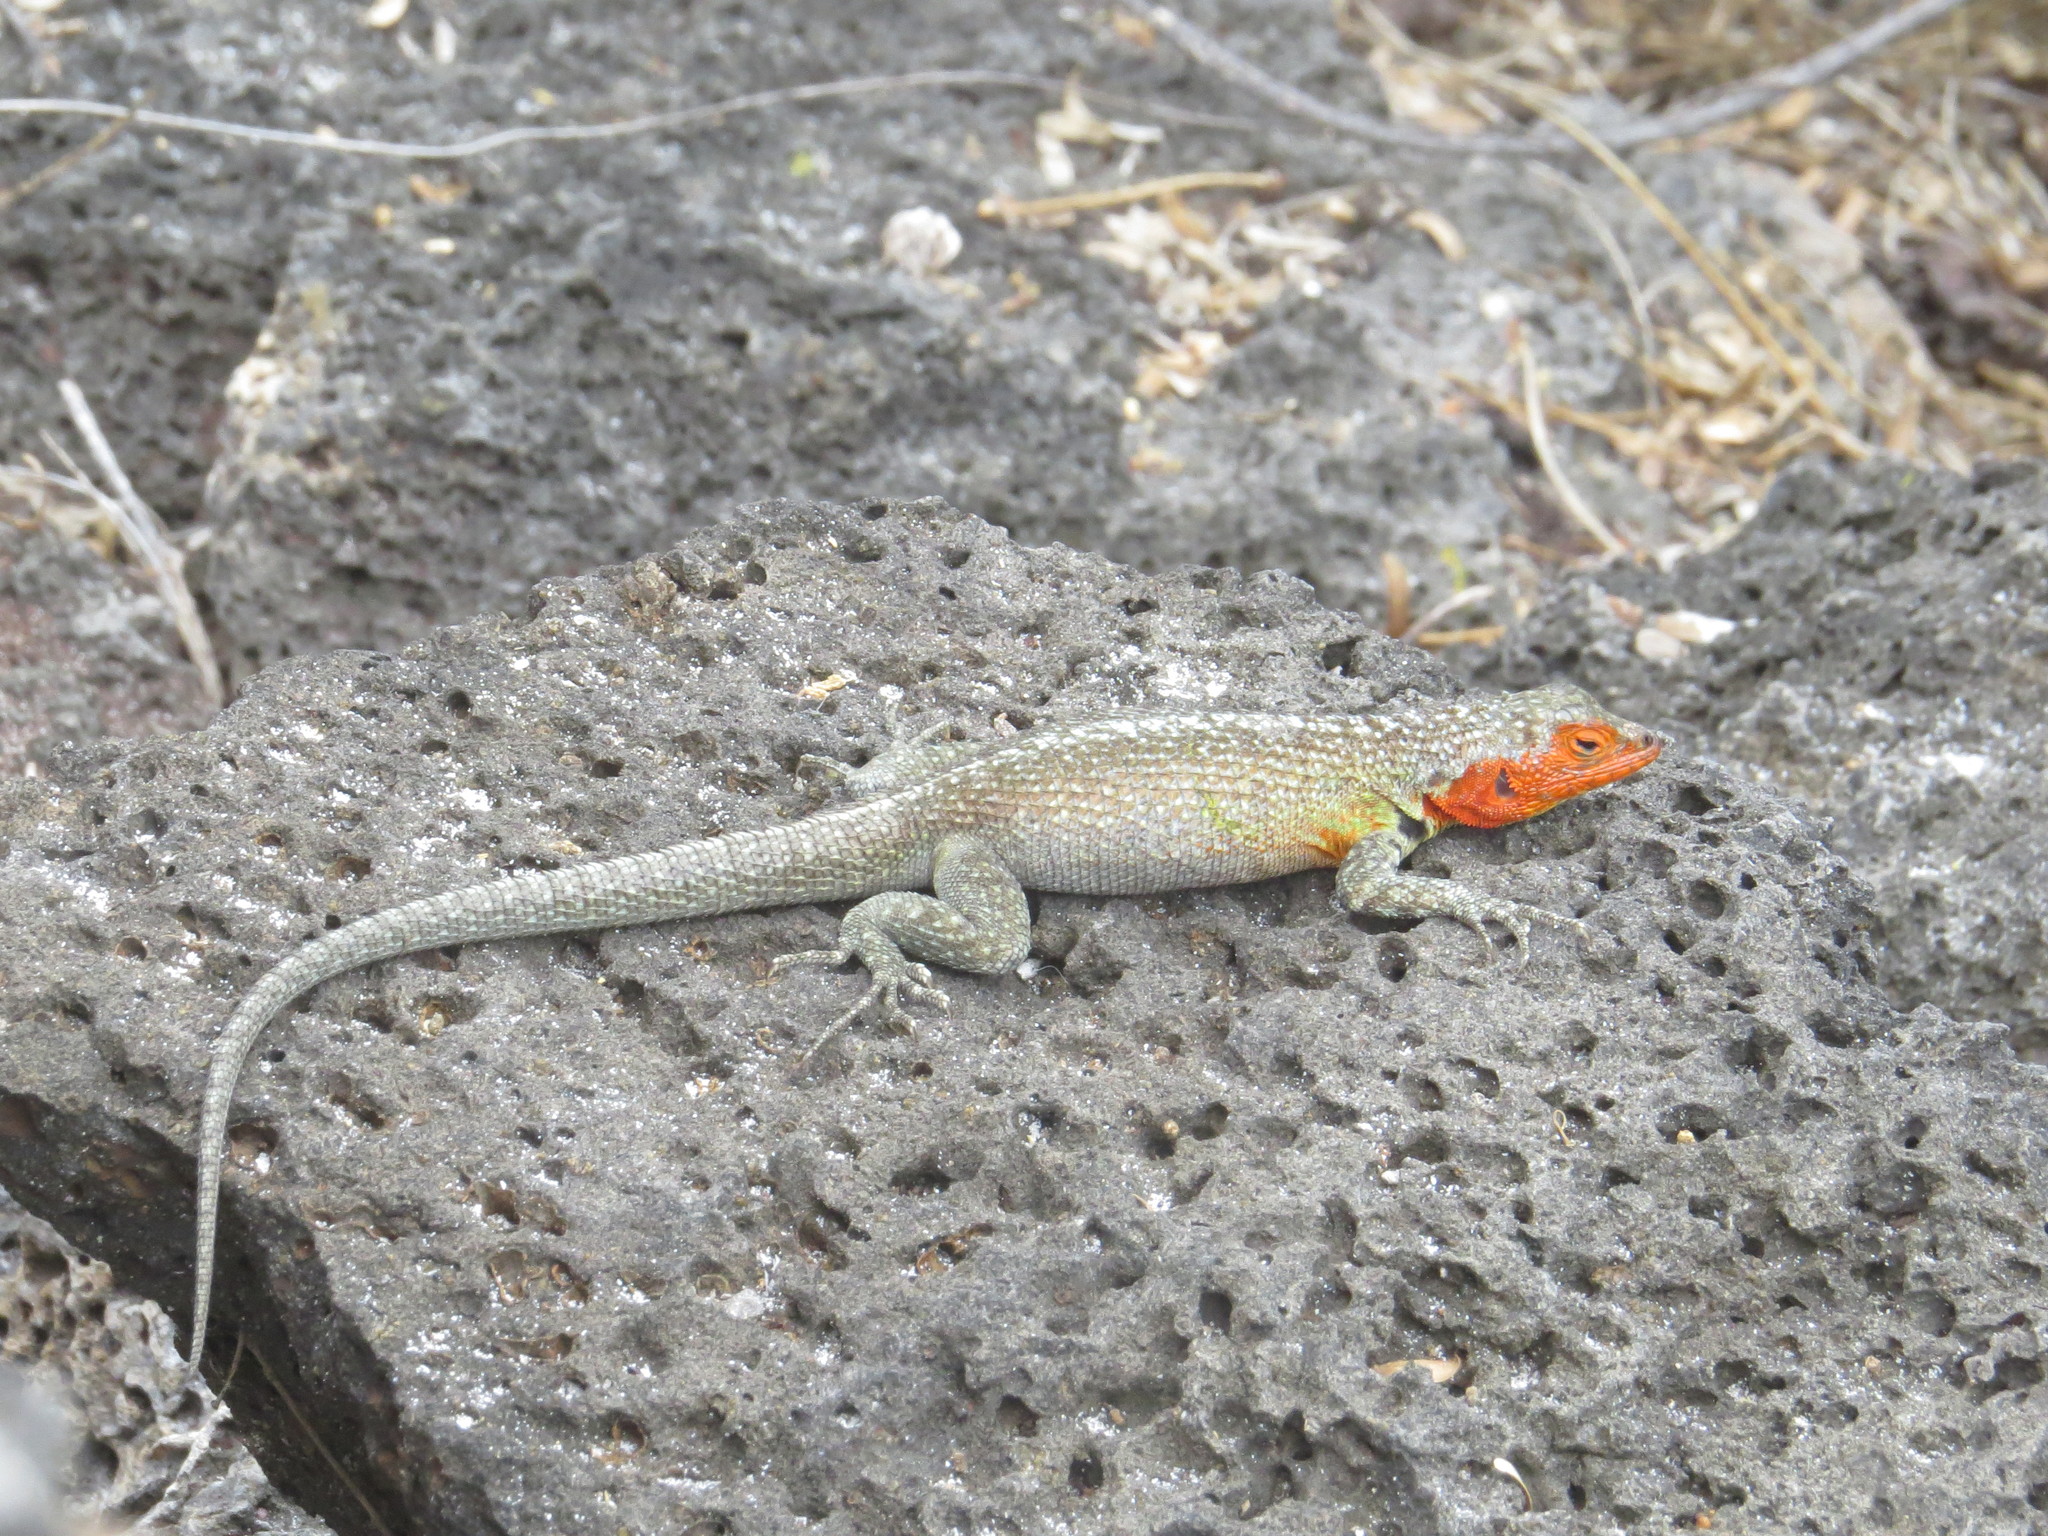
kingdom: Animalia
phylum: Chordata
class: Squamata
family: Tropiduridae
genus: Microlophus
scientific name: Microlophus indefatigabilis
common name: Galapagos lava lizard
